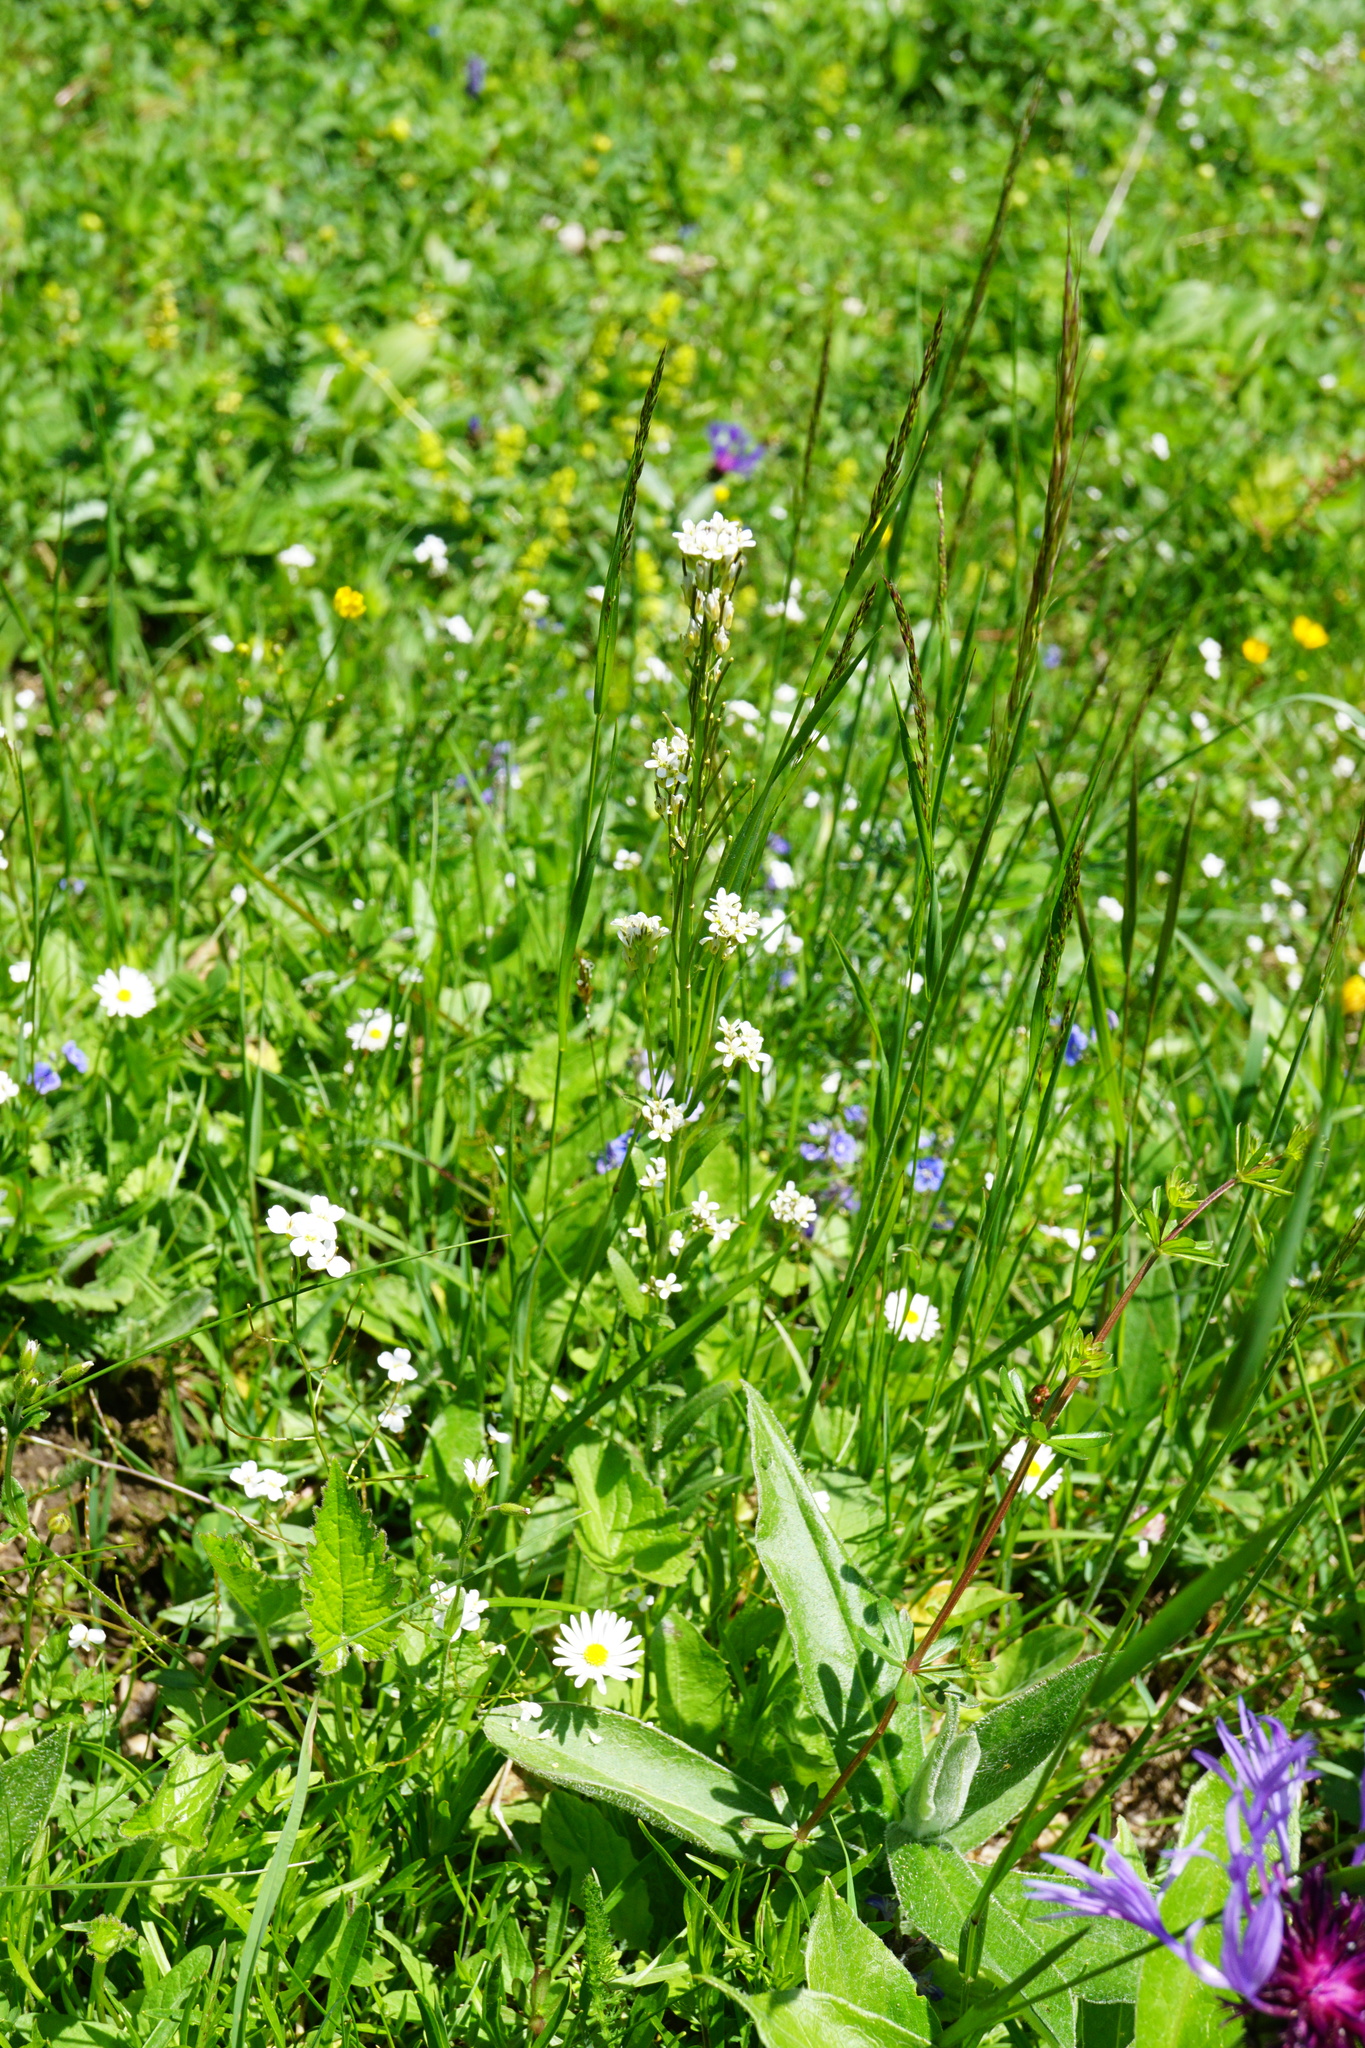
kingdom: Plantae
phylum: Tracheophyta
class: Magnoliopsida
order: Brassicales
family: Brassicaceae
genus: Arabis
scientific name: Arabis hirsuta
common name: Hairy rock-cress
